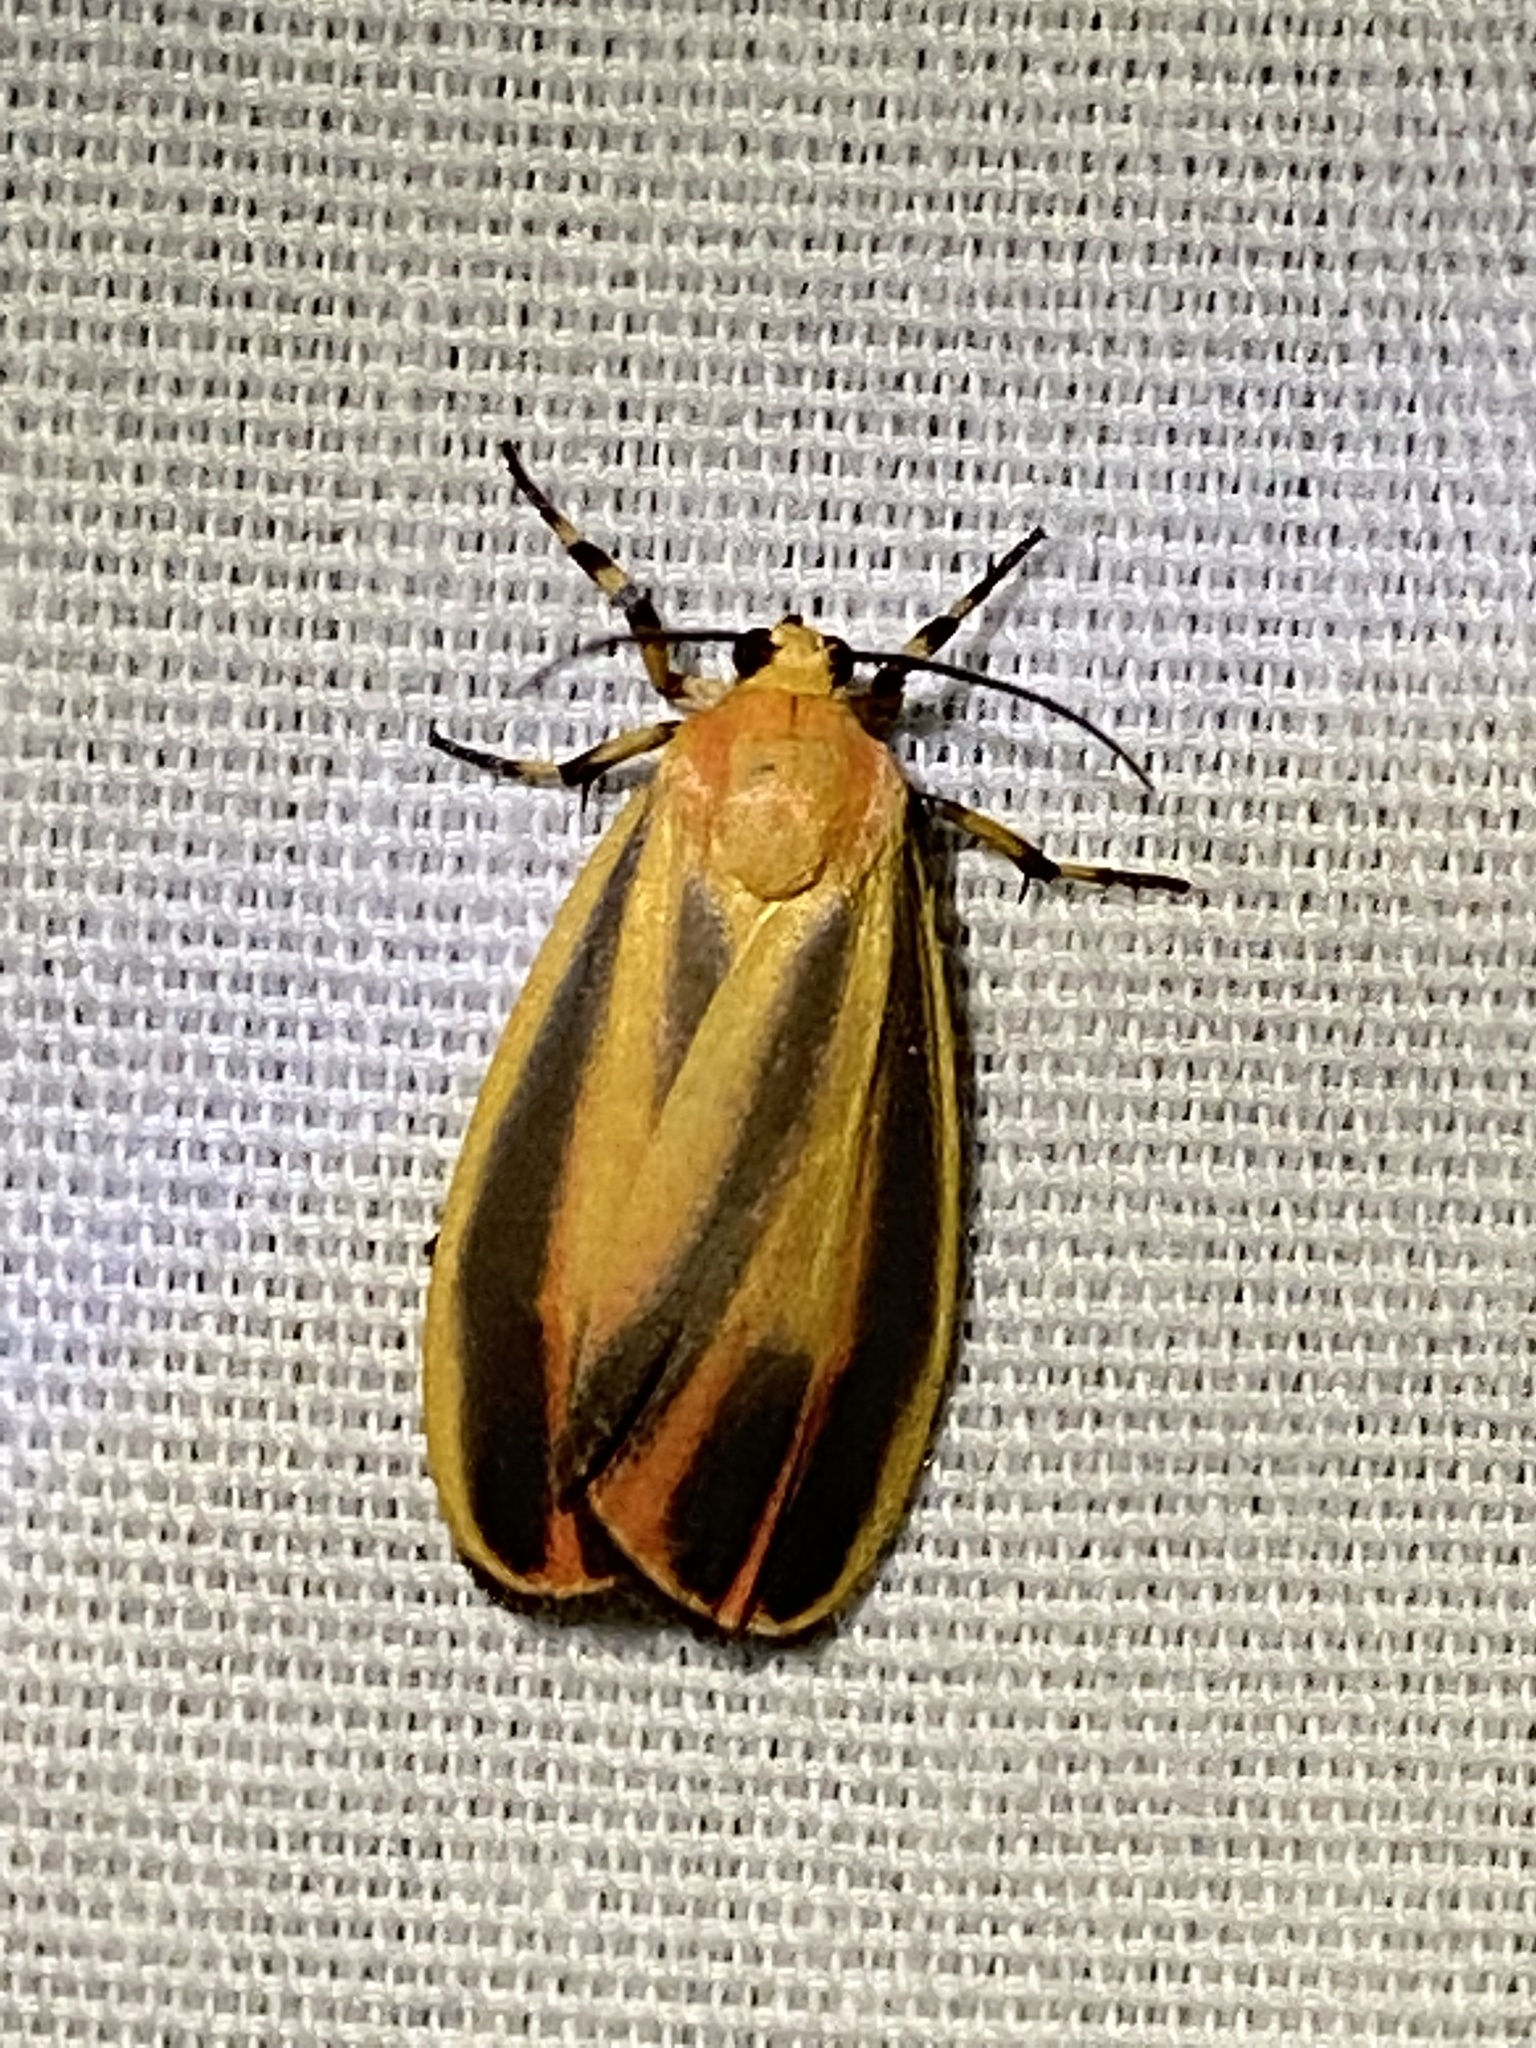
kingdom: Animalia
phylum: Arthropoda
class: Insecta
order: Lepidoptera
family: Erebidae
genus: Hypoprepia
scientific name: Hypoprepia fucosa
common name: Painted lichen moth
